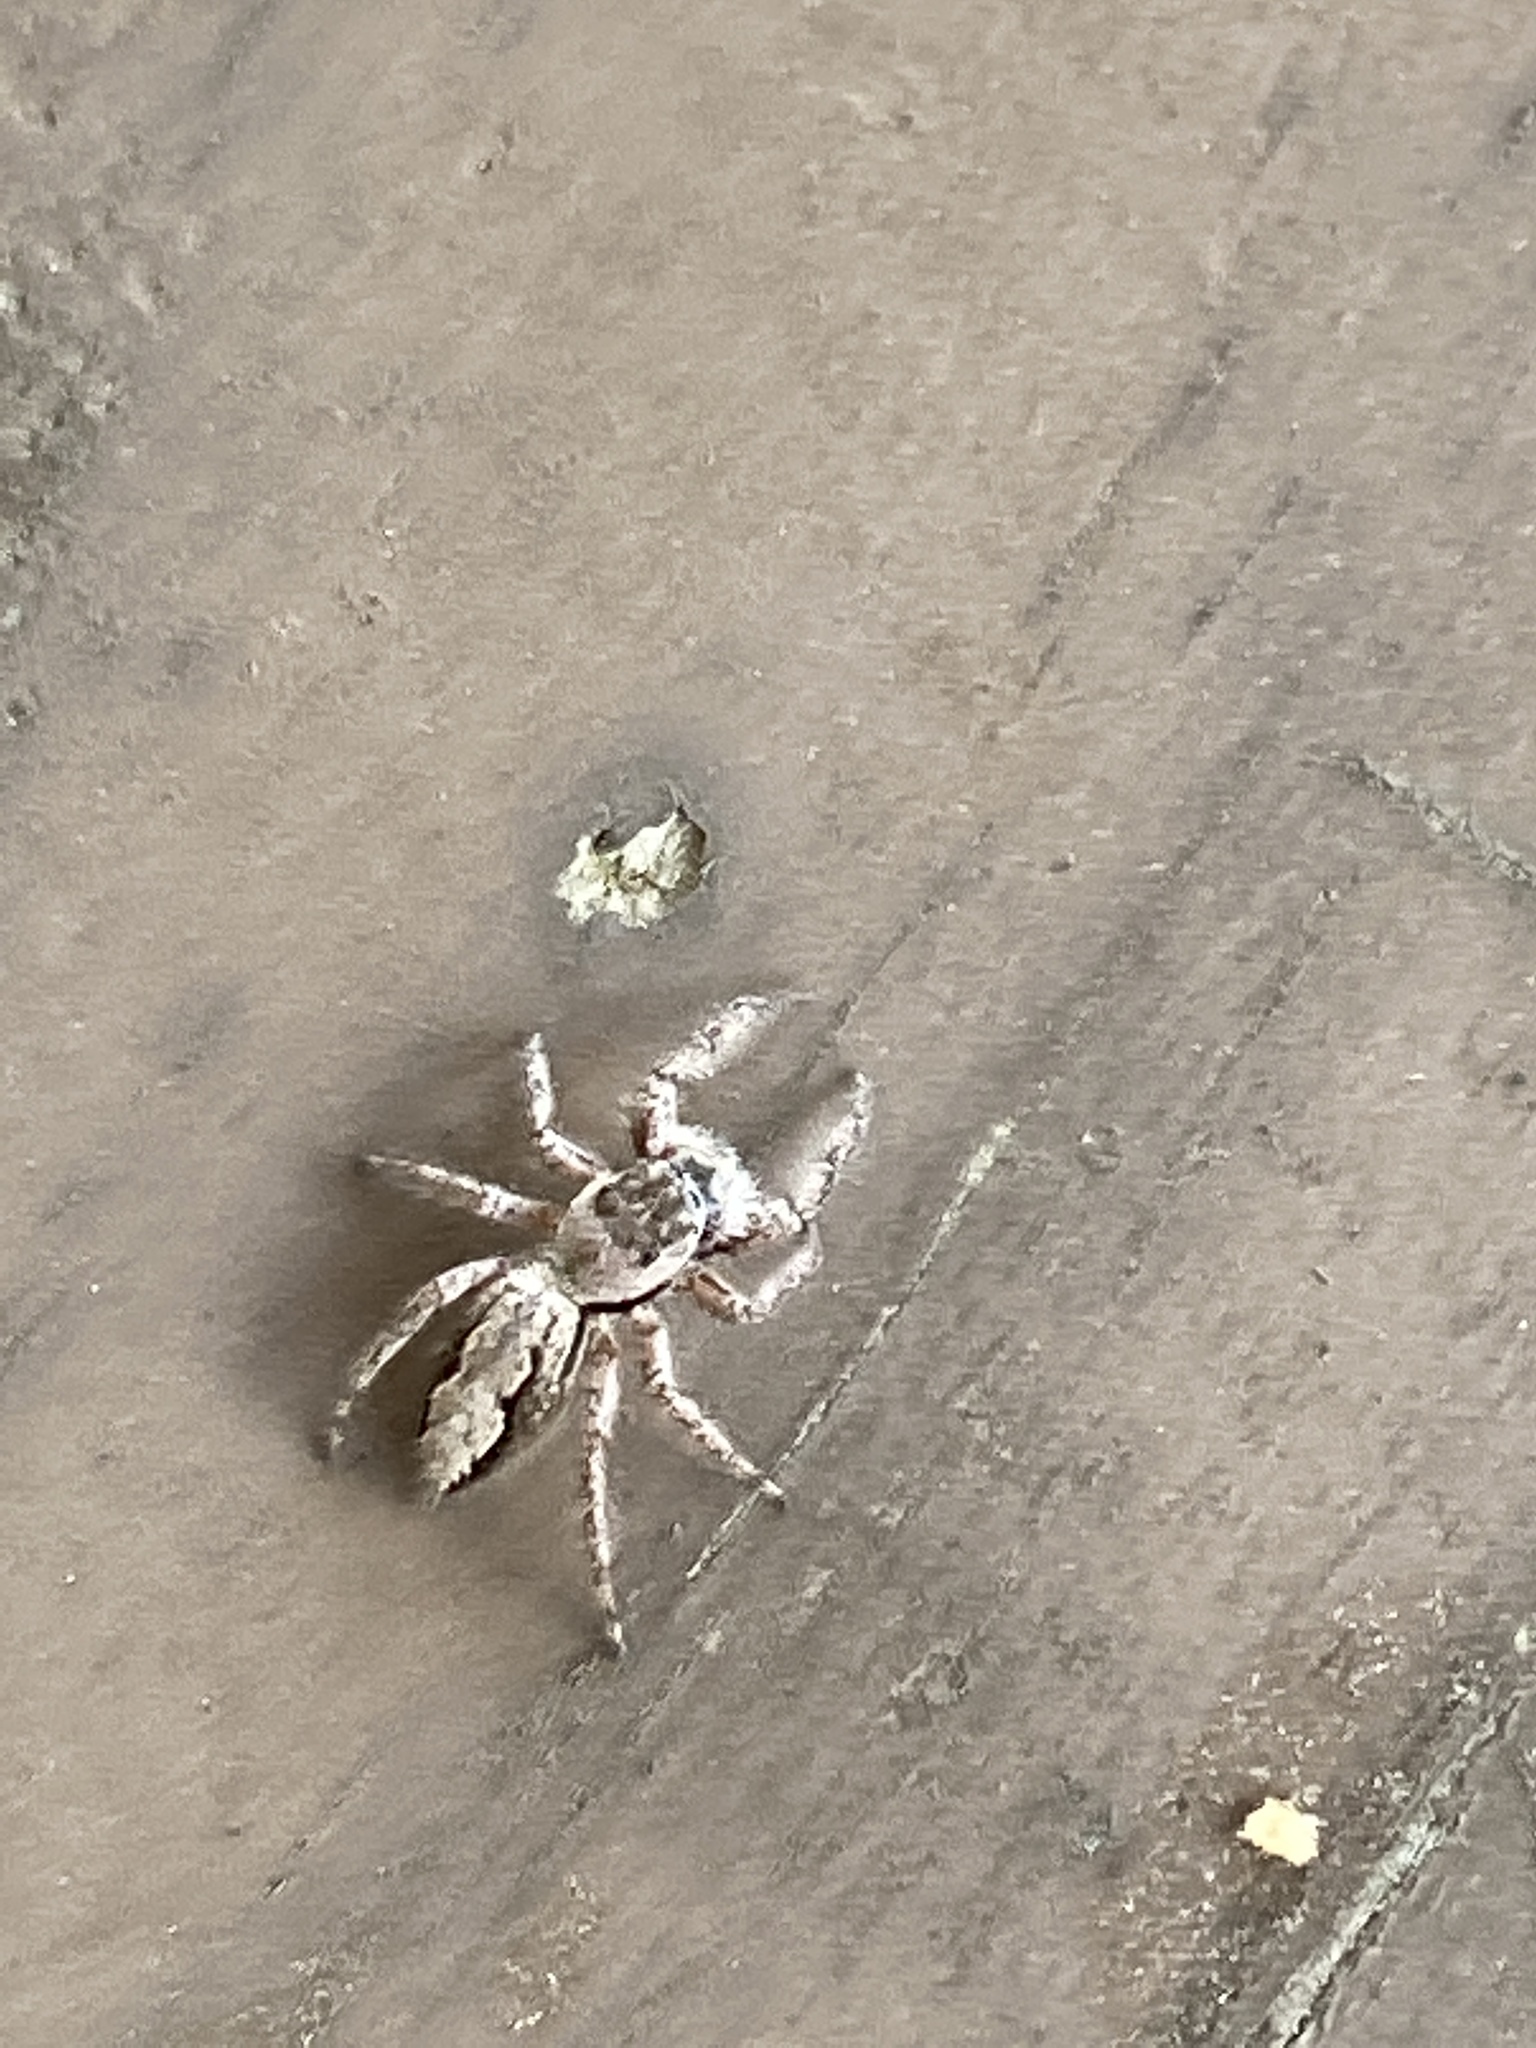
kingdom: Animalia
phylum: Arthropoda
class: Arachnida
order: Araneae
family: Salticidae
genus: Platycryptus
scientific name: Platycryptus undatus
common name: Tan jumping spider
